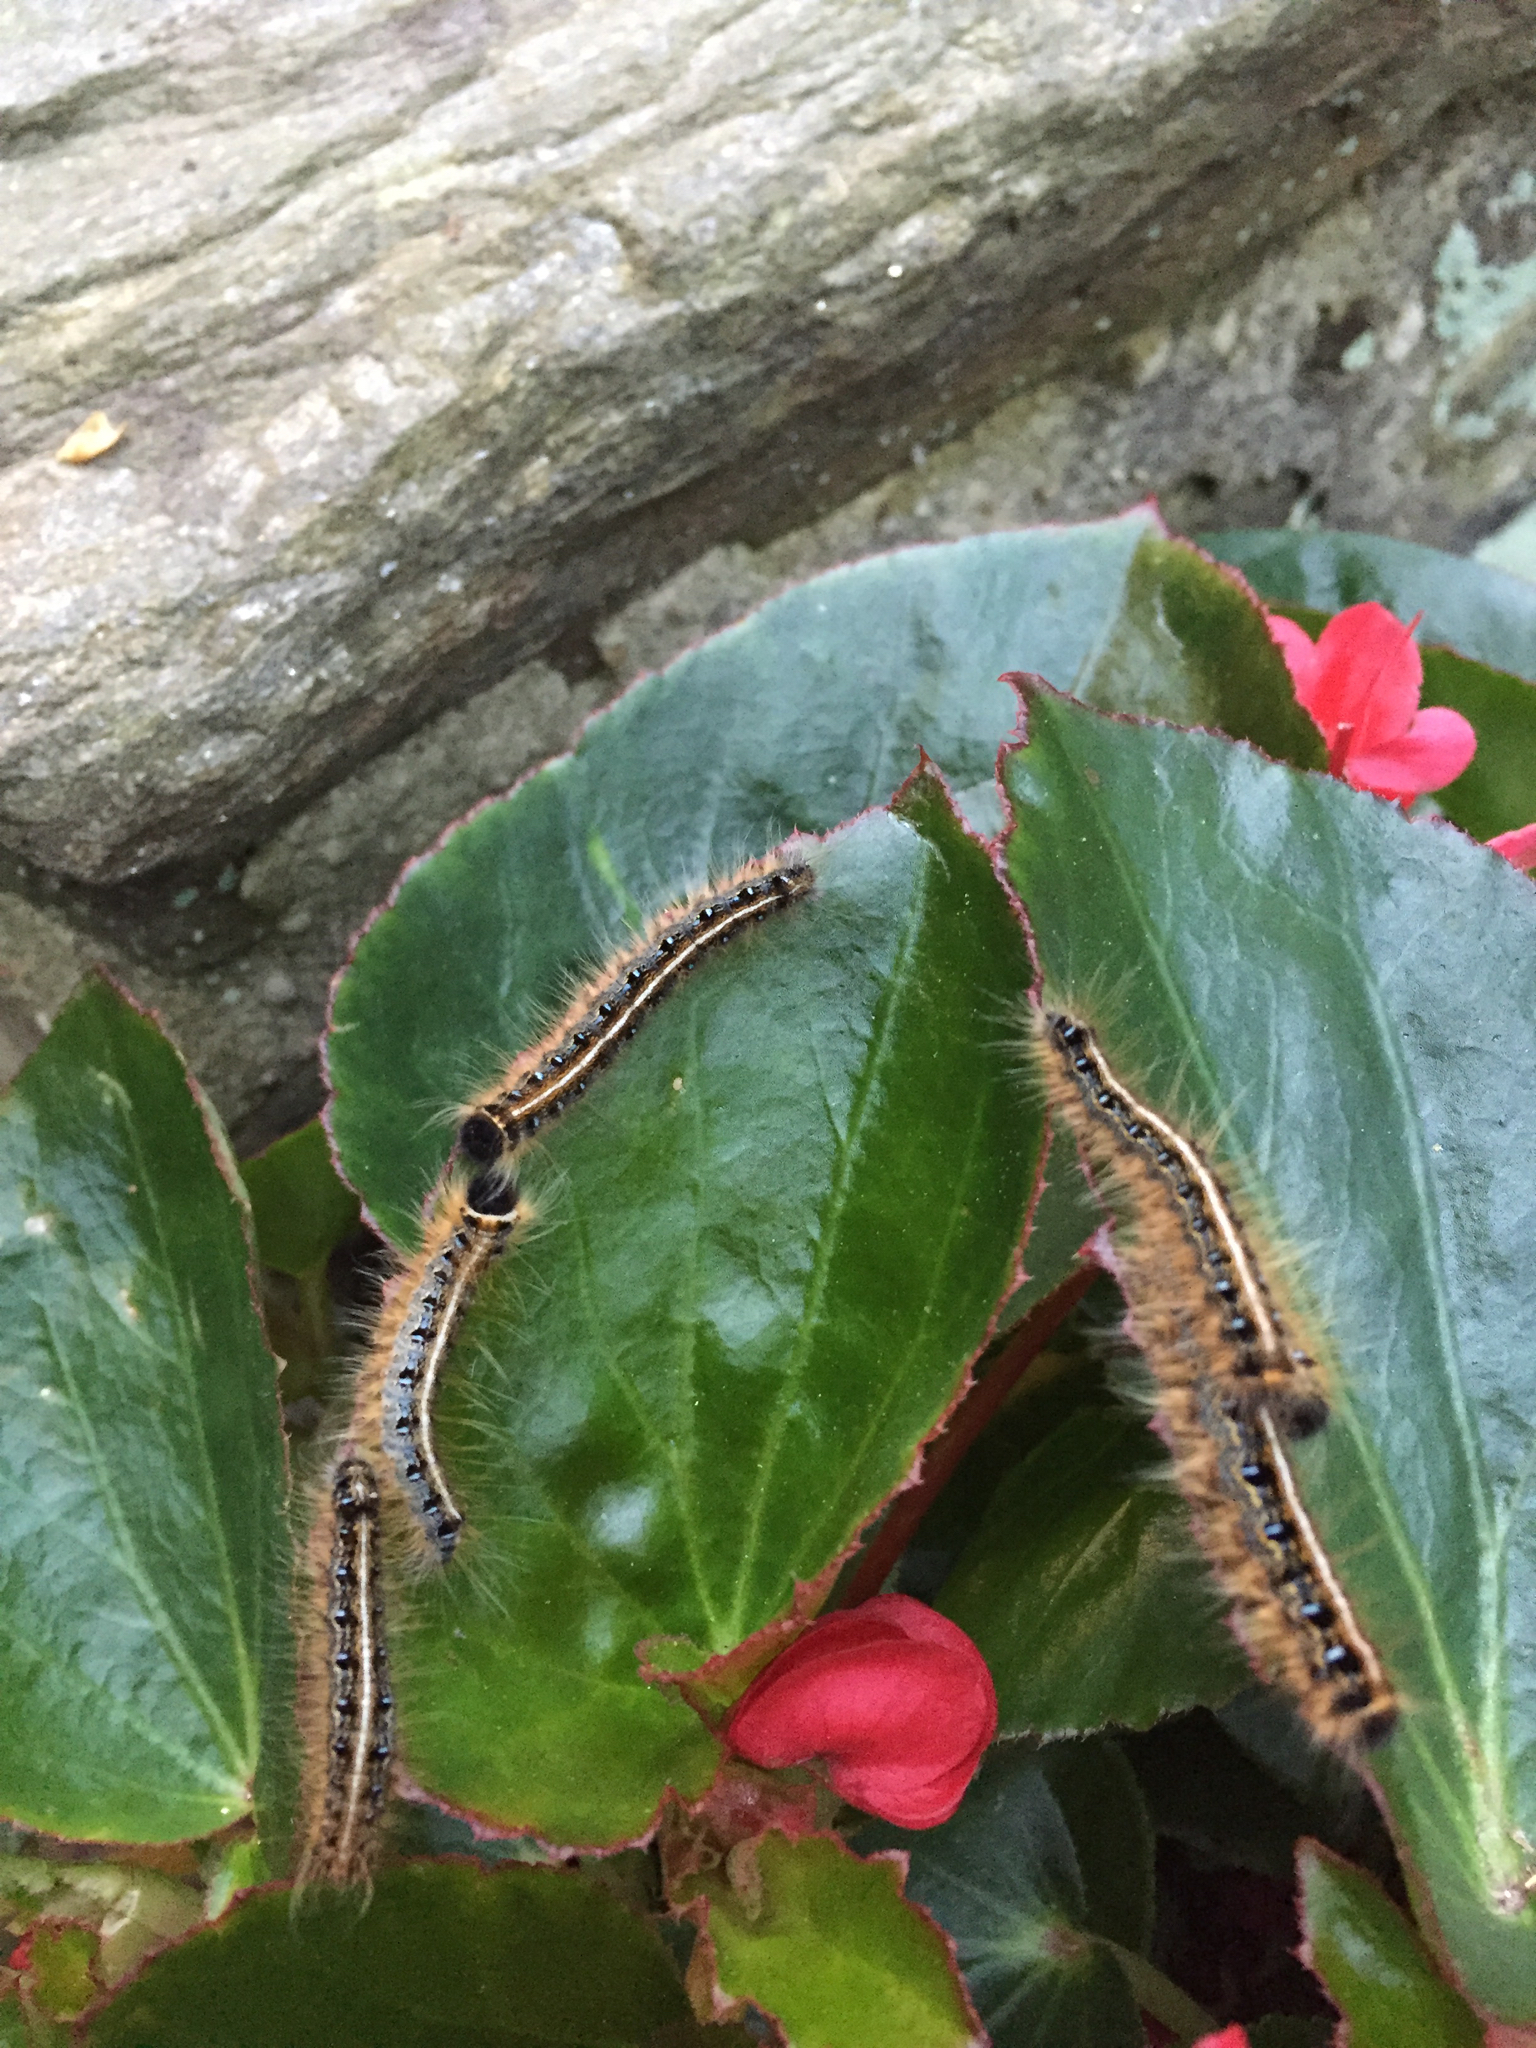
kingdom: Animalia
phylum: Arthropoda
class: Insecta
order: Lepidoptera
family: Lasiocampidae
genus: Malacosoma
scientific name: Malacosoma americana
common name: Eastern tent caterpillar moth
